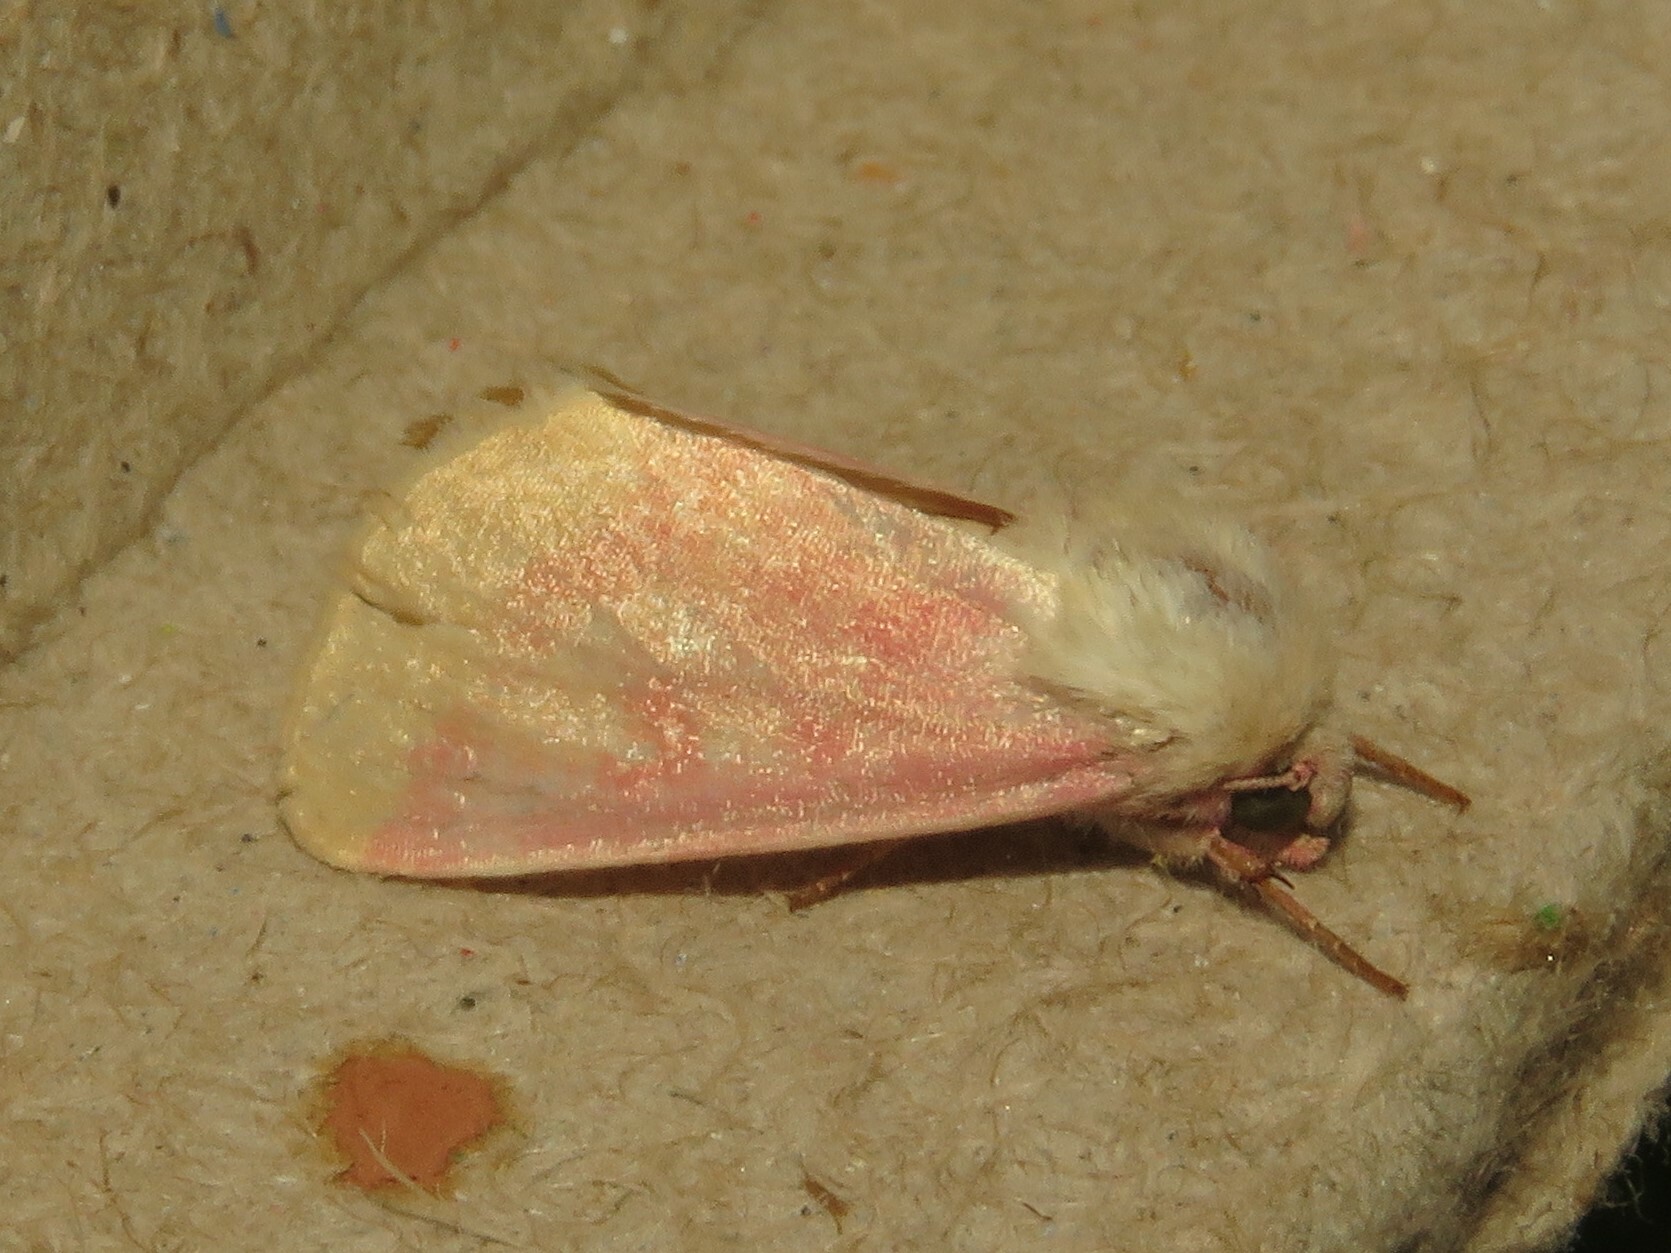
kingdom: Animalia
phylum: Arthropoda
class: Insecta
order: Lepidoptera
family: Noctuidae
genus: Schinia
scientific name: Schinia florida
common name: Primrose moth
